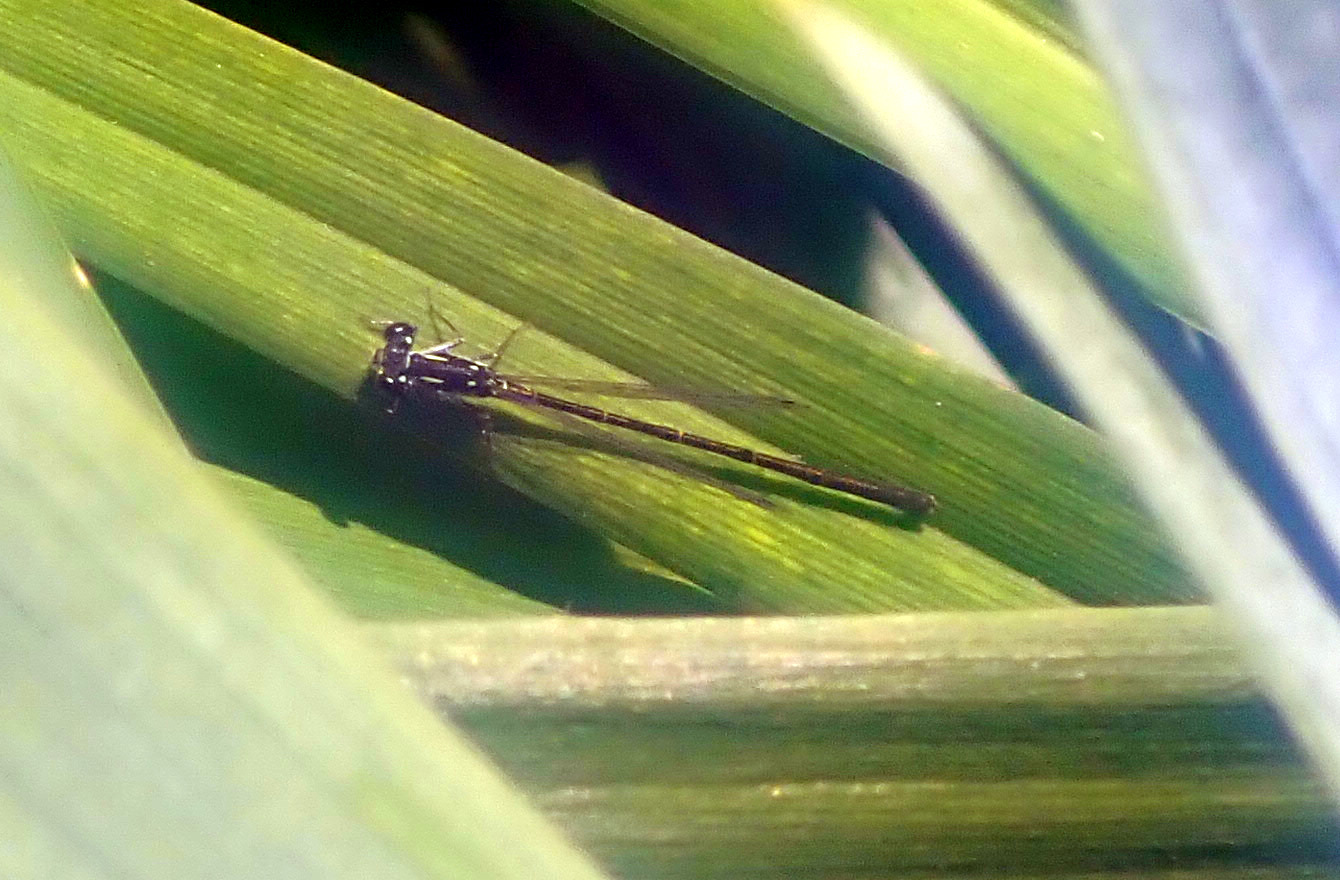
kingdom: Animalia
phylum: Arthropoda
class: Insecta
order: Odonata
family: Coenagrionidae
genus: Ischnura
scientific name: Ischnura posita
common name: Fragile forktail
